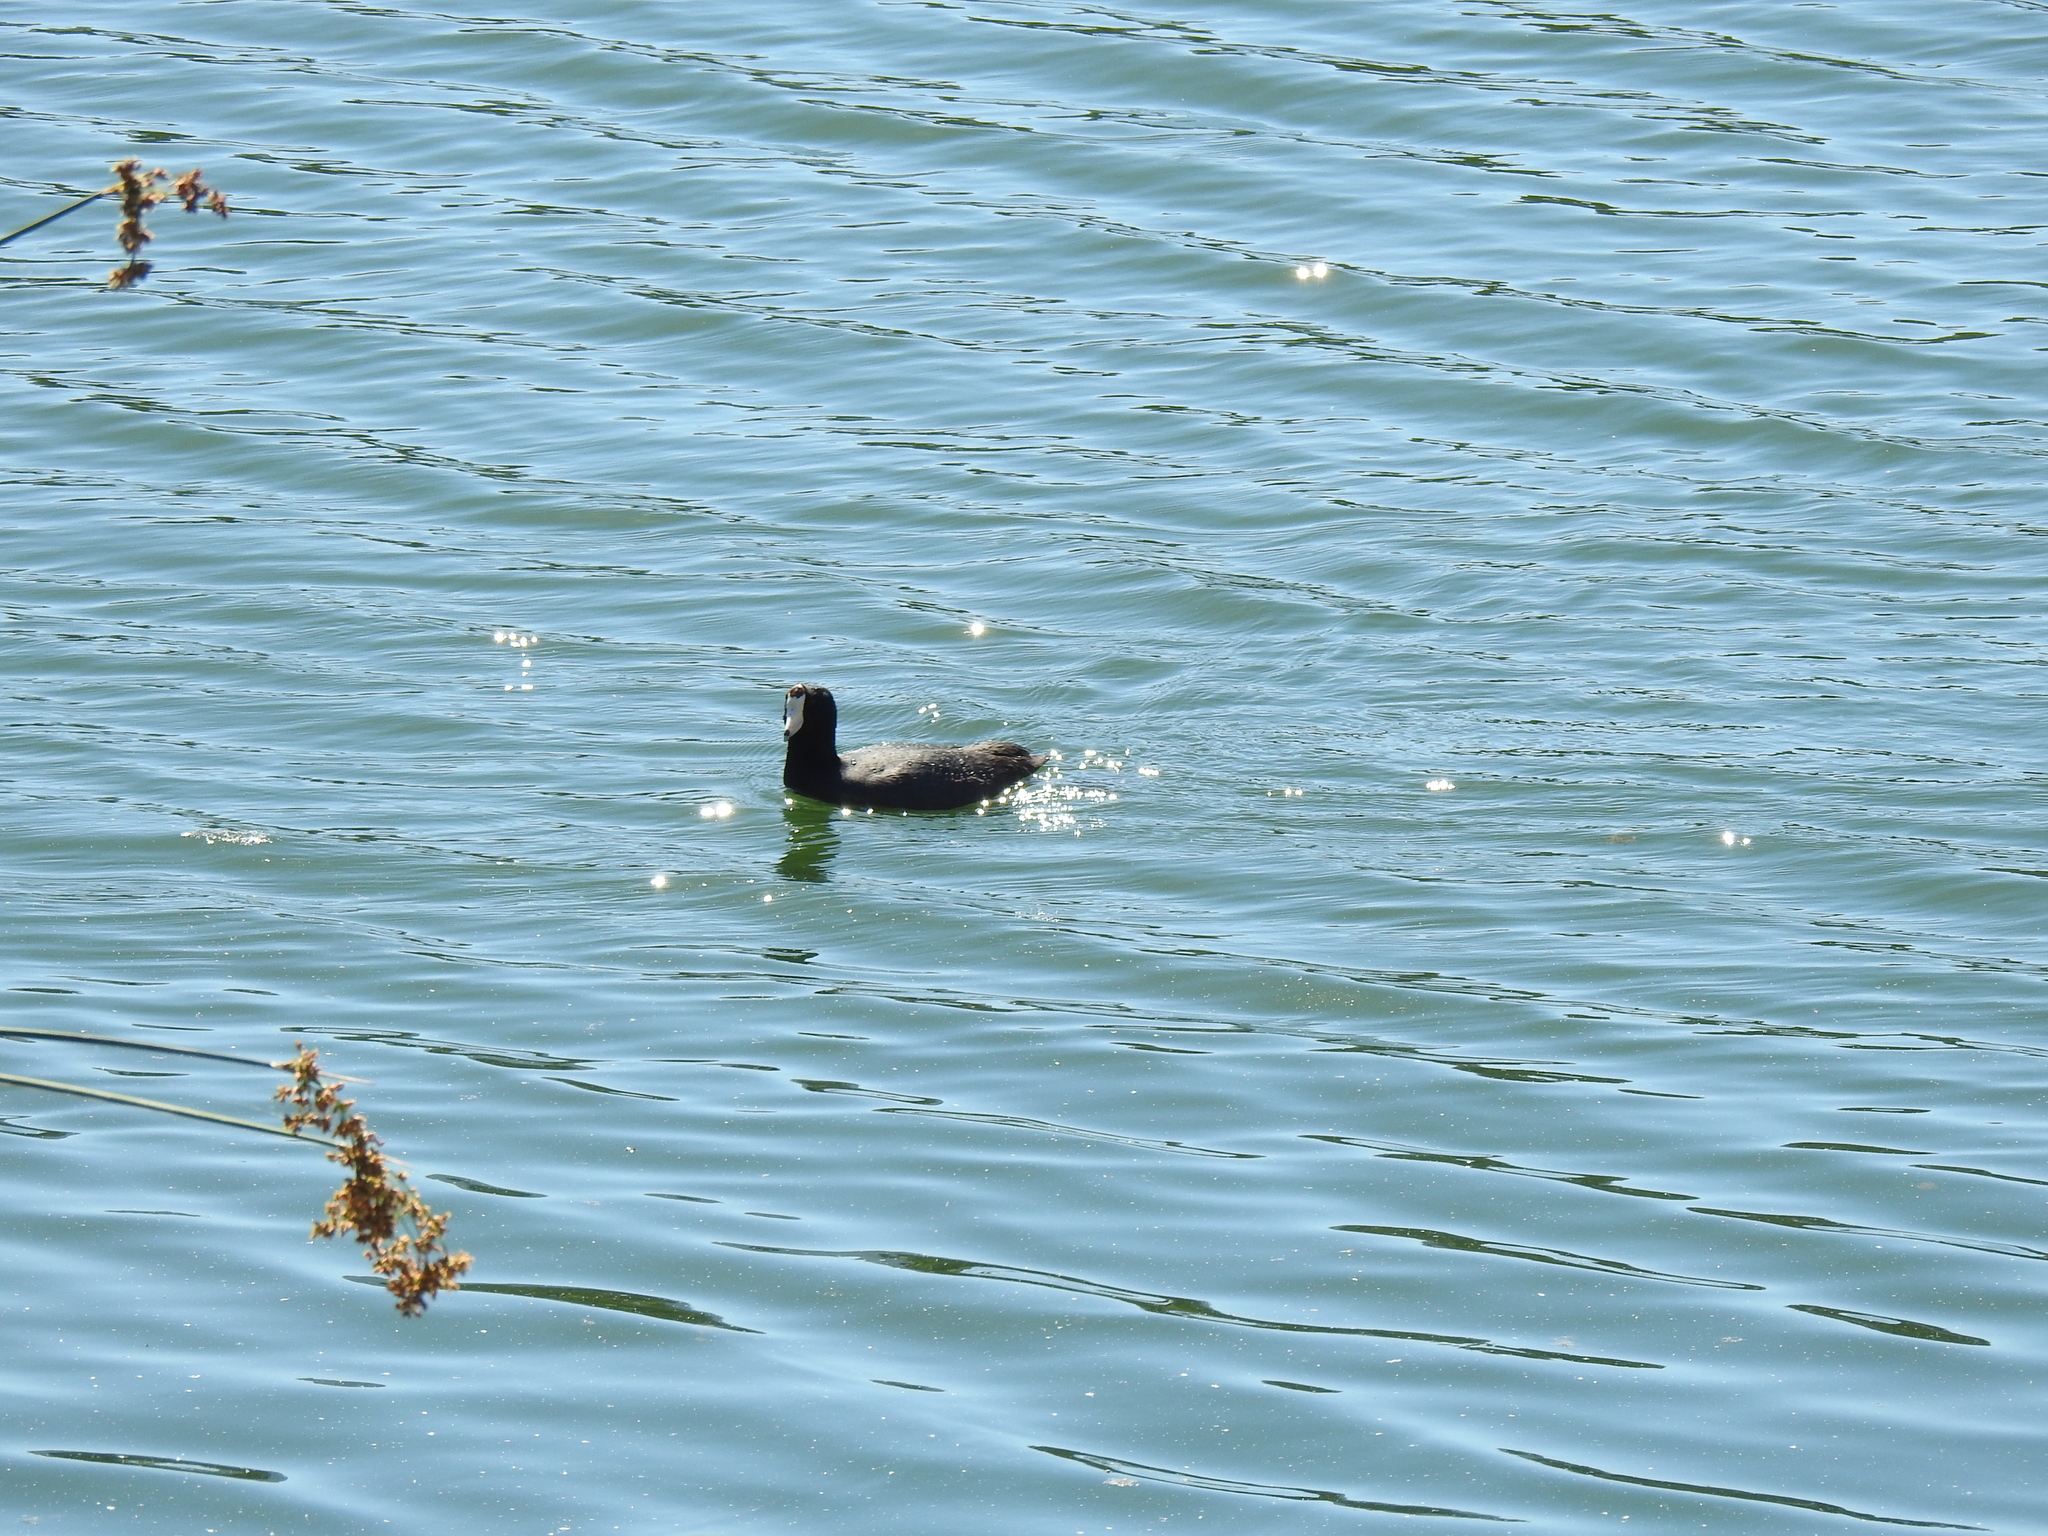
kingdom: Animalia
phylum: Chordata
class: Aves
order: Gruiformes
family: Rallidae
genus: Fulica
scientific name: Fulica americana
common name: American coot
